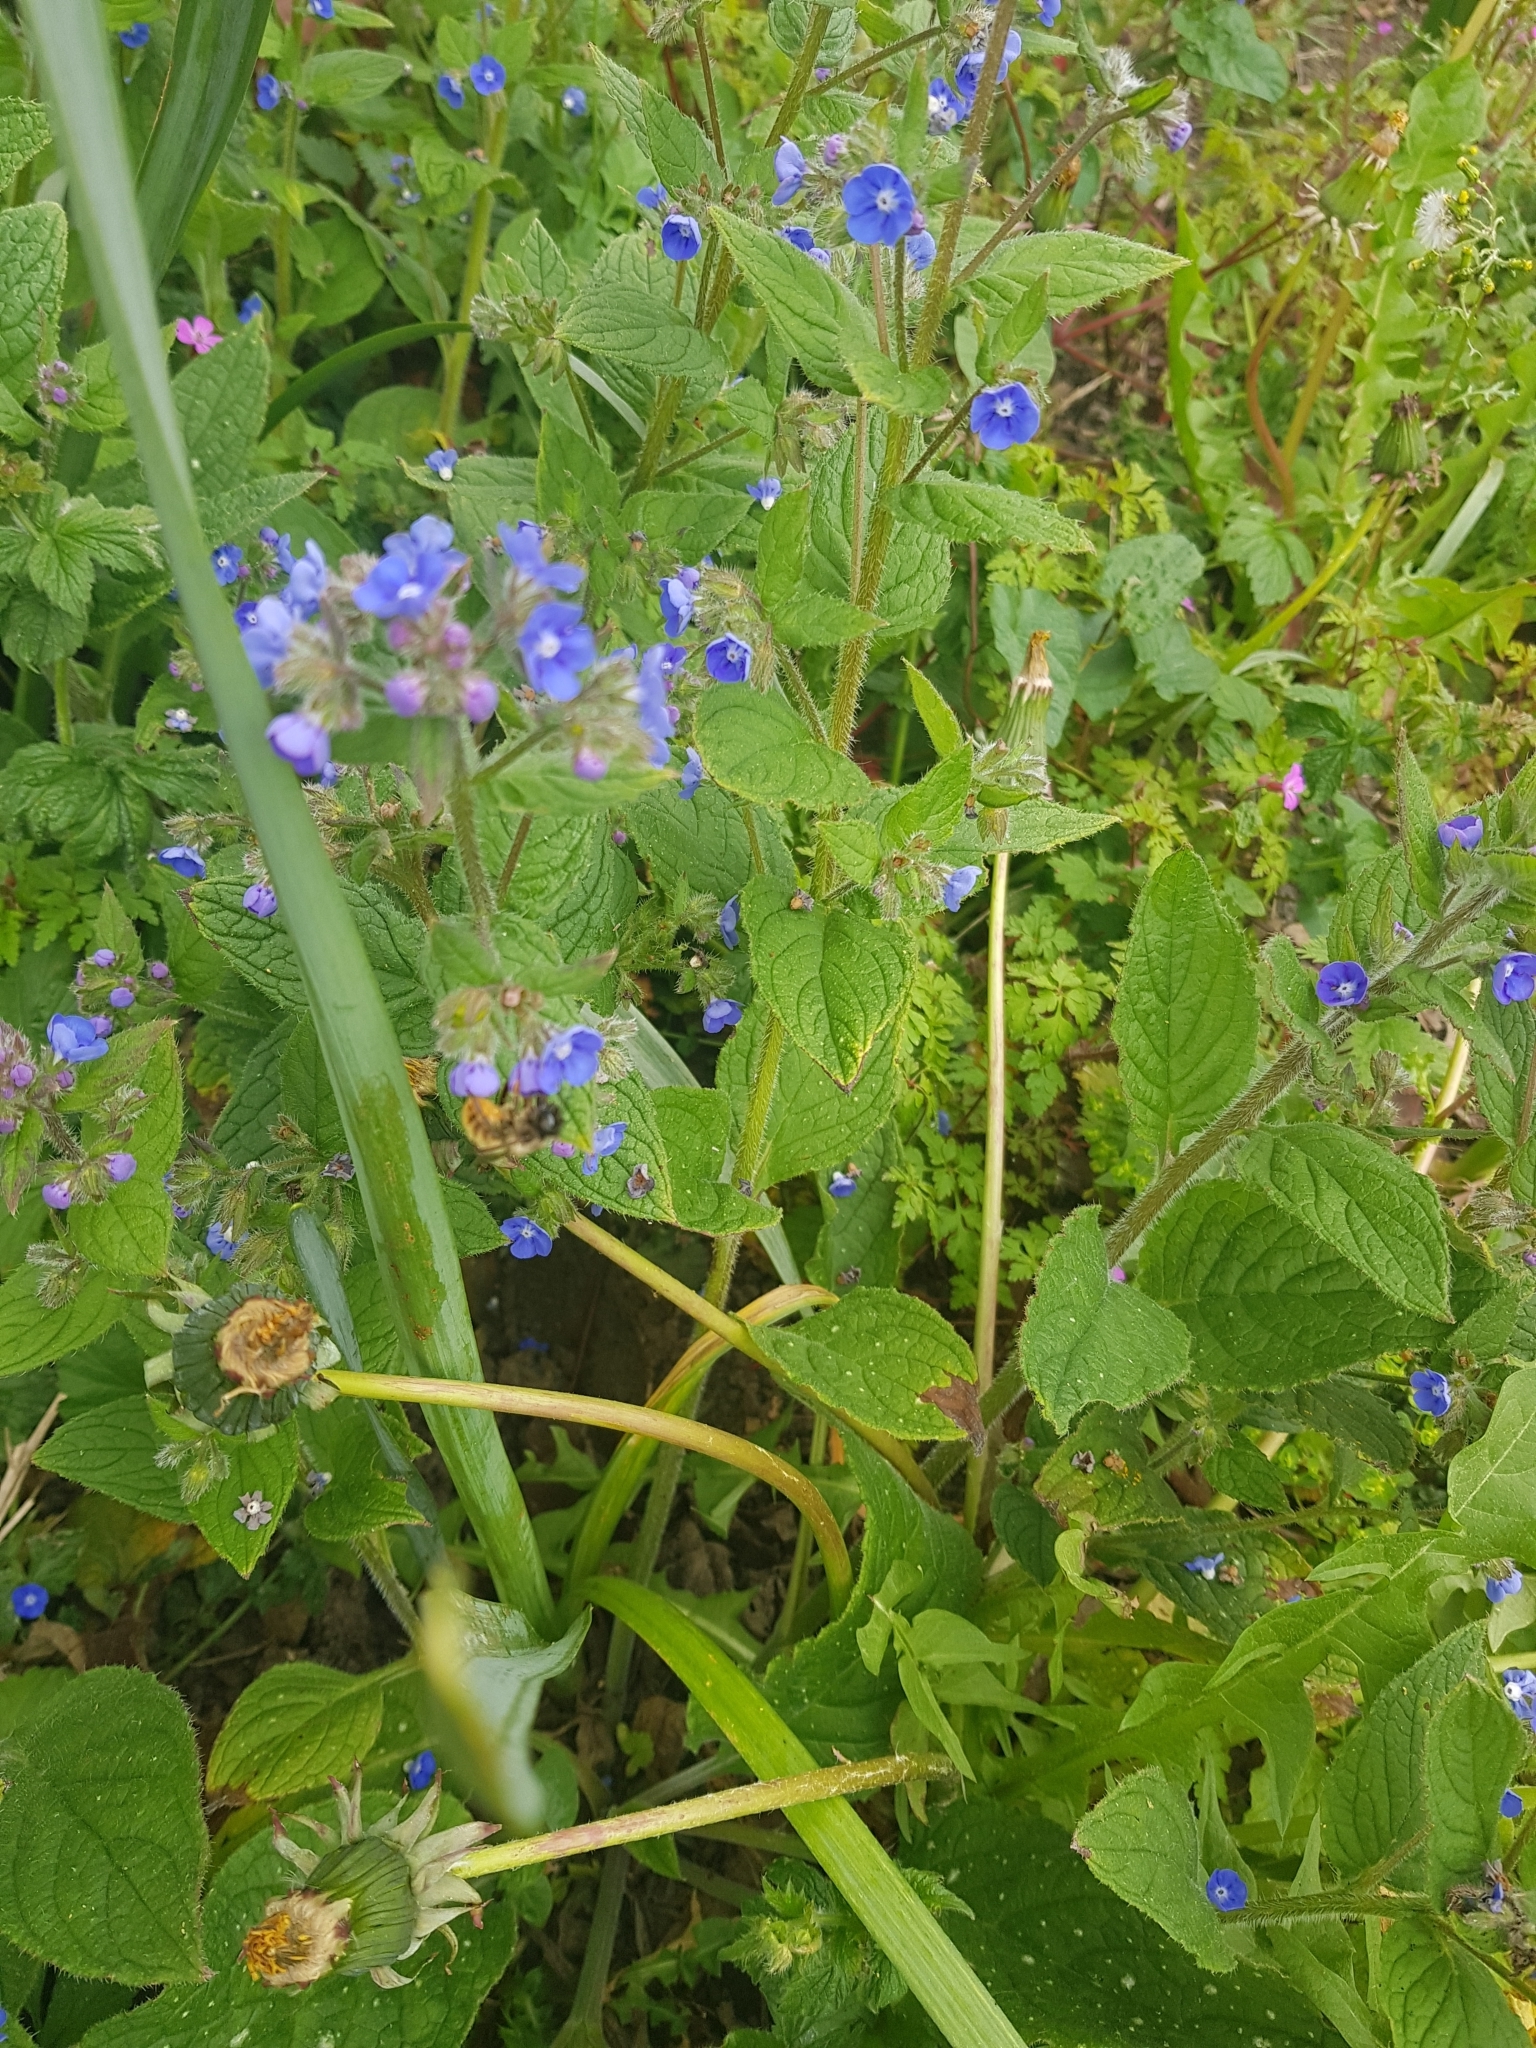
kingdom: Animalia
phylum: Arthropoda
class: Insecta
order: Hymenoptera
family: Megachilidae
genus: Osmia
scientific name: Osmia bicornis
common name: Red mason bee
